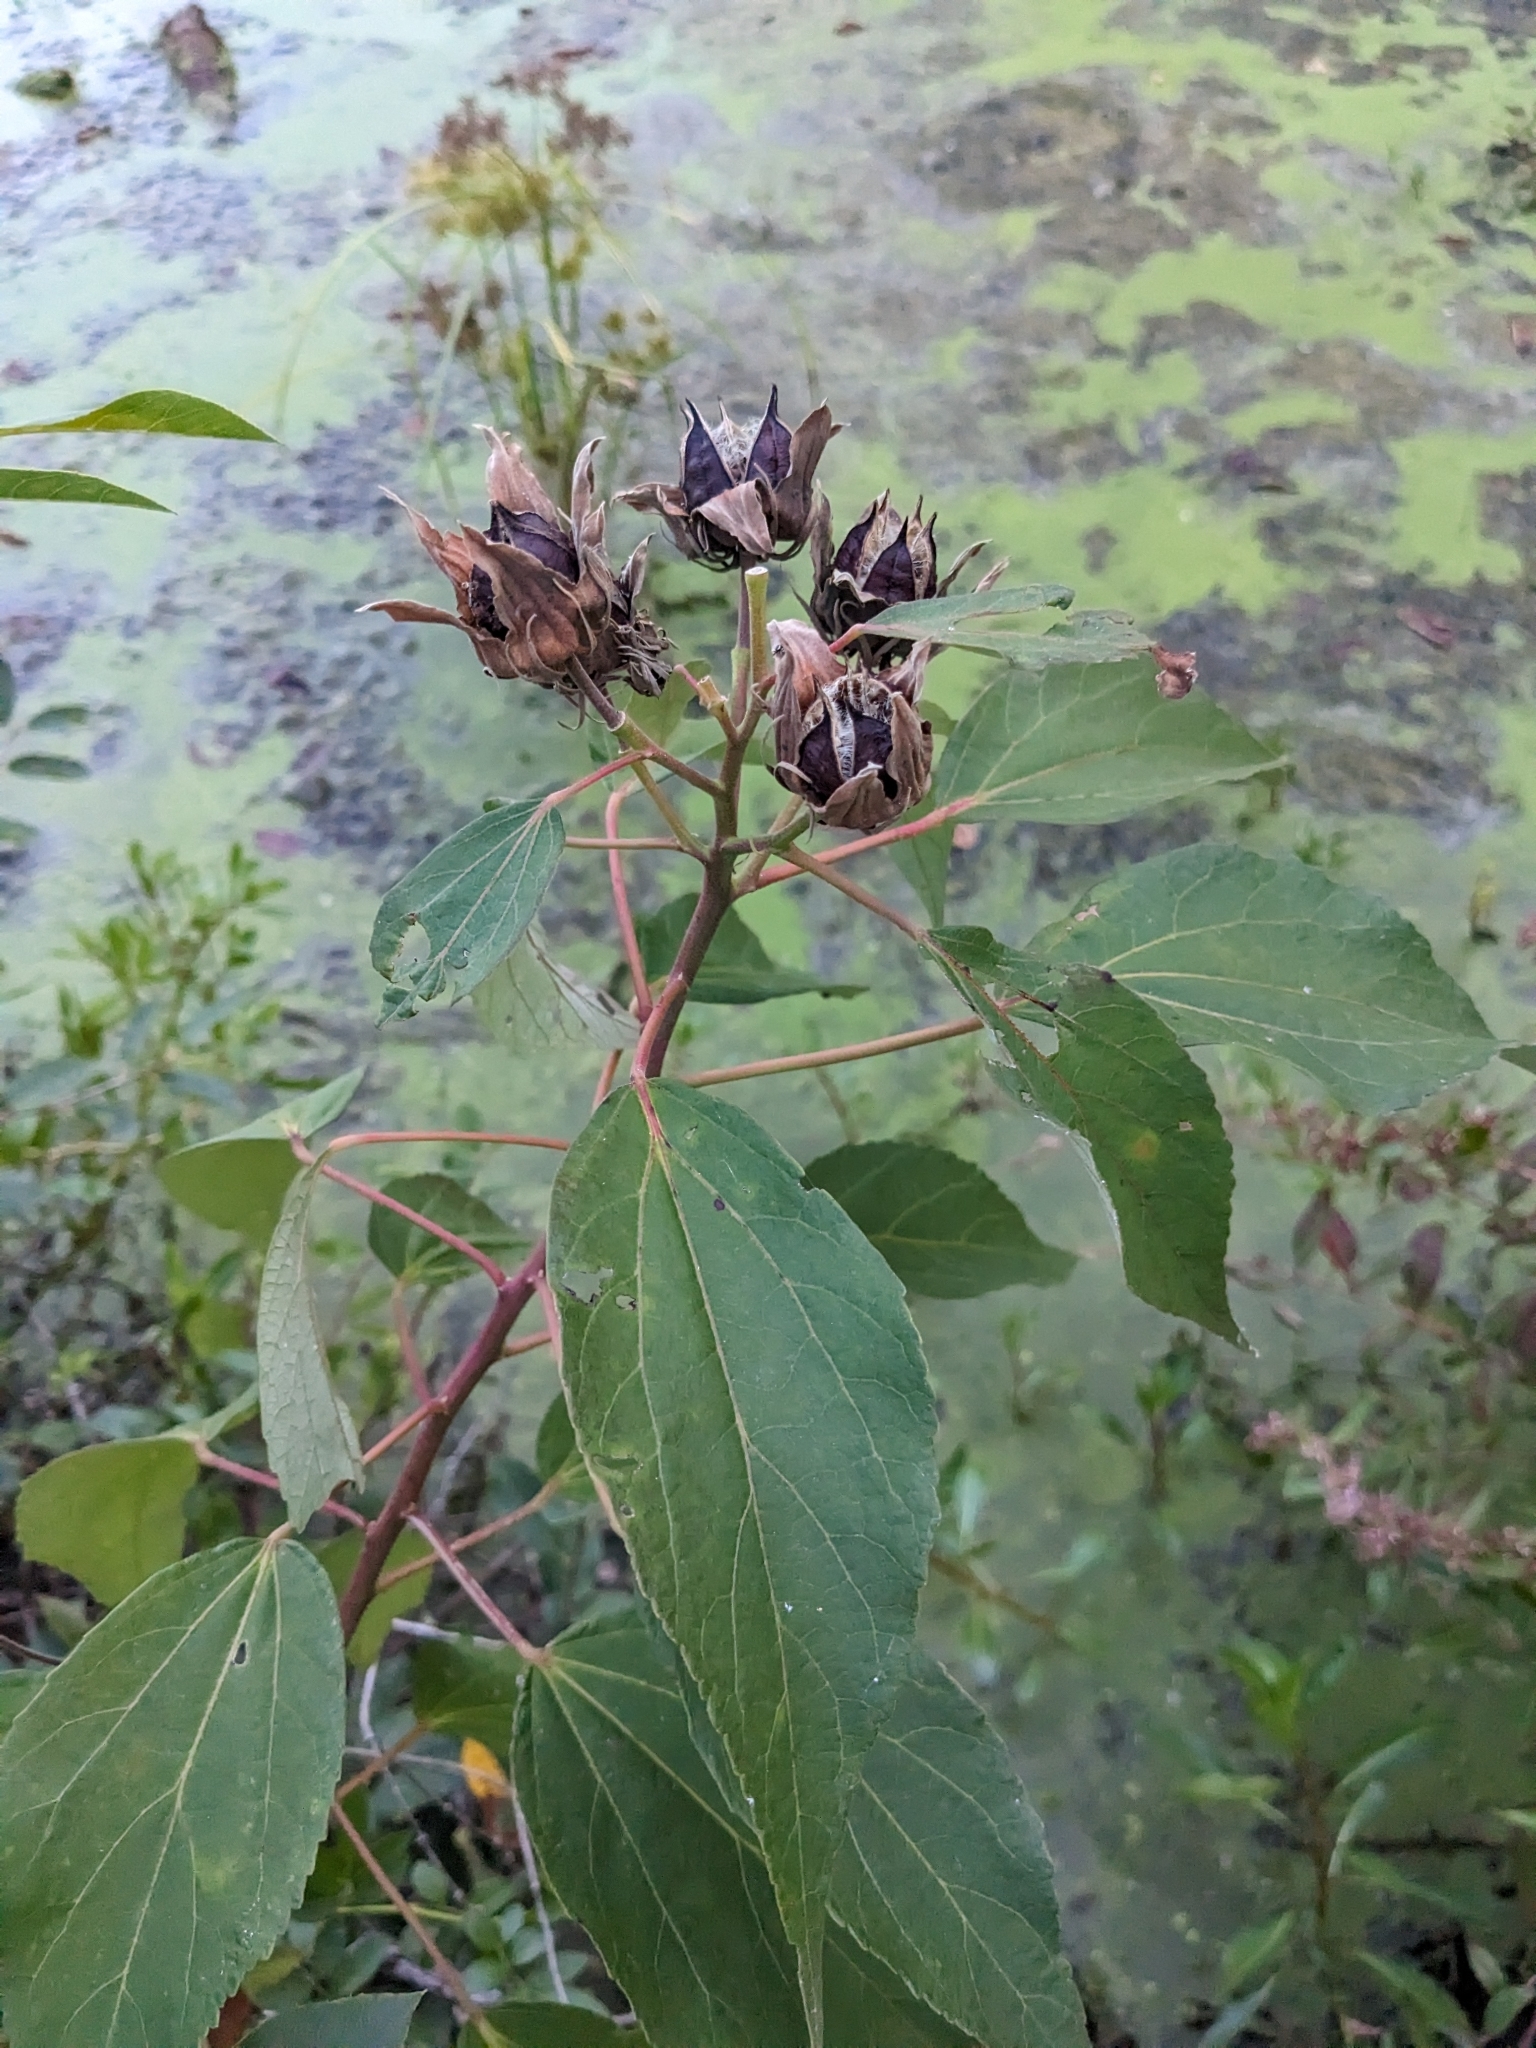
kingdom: Plantae
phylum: Tracheophyta
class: Magnoliopsida
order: Malvales
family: Malvaceae
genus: Hibiscus
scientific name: Hibiscus moscheutos
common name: Common rose-mallow
